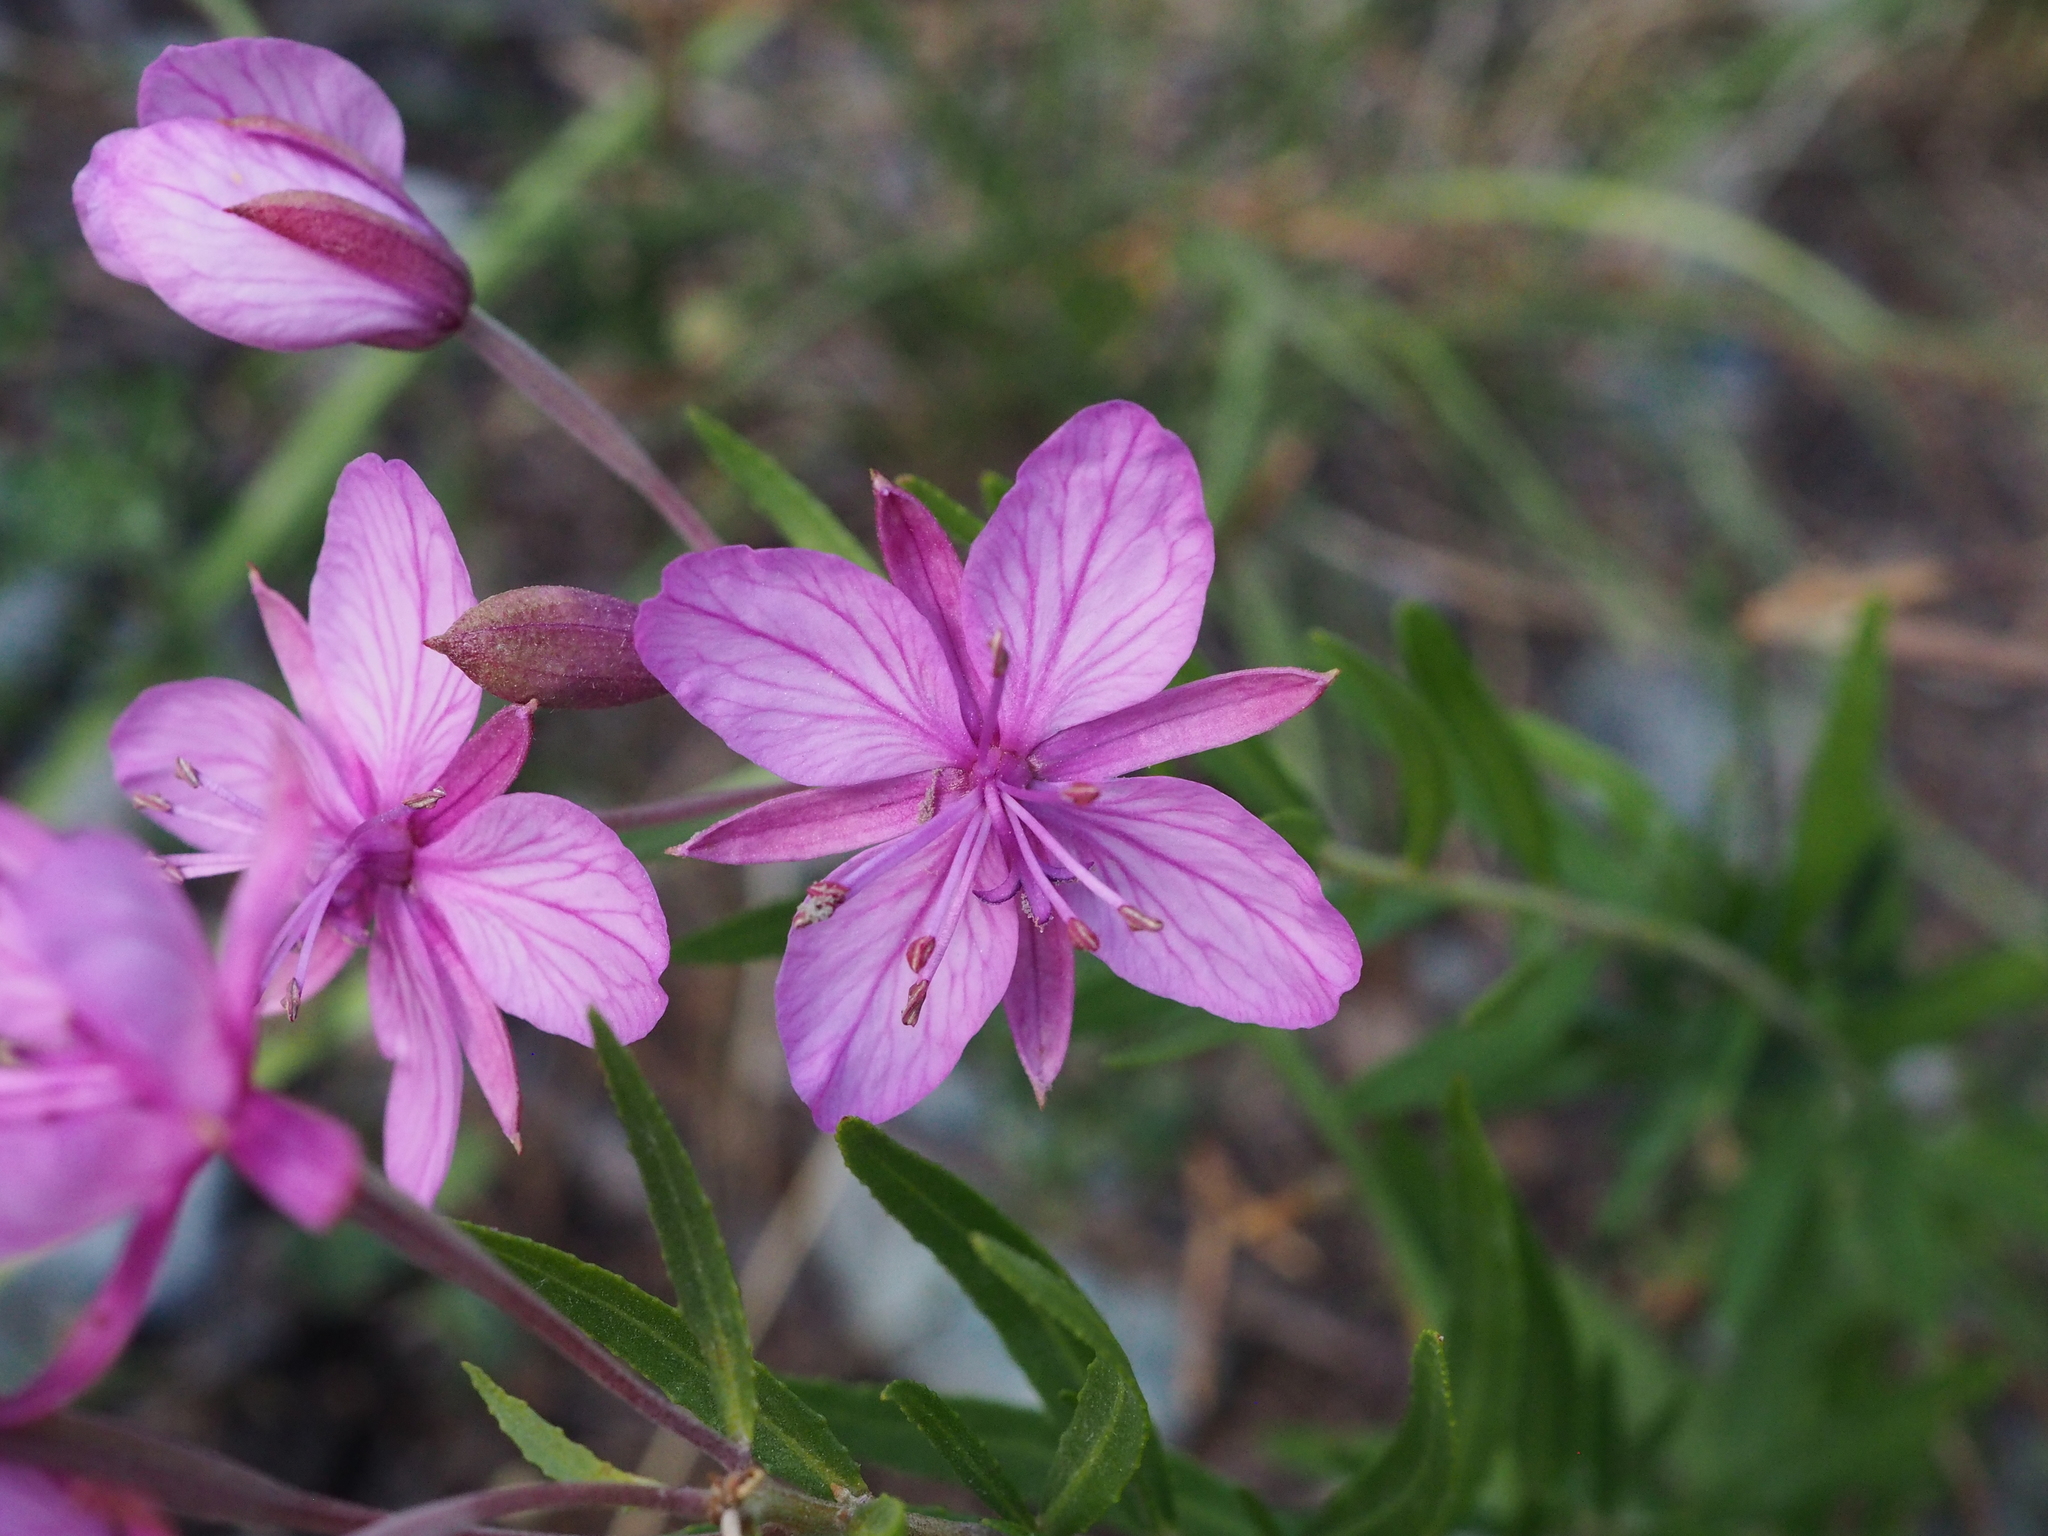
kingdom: Plantae
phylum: Tracheophyta
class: Magnoliopsida
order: Myrtales
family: Onagraceae
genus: Chamaenerion
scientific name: Chamaenerion fleischeri
